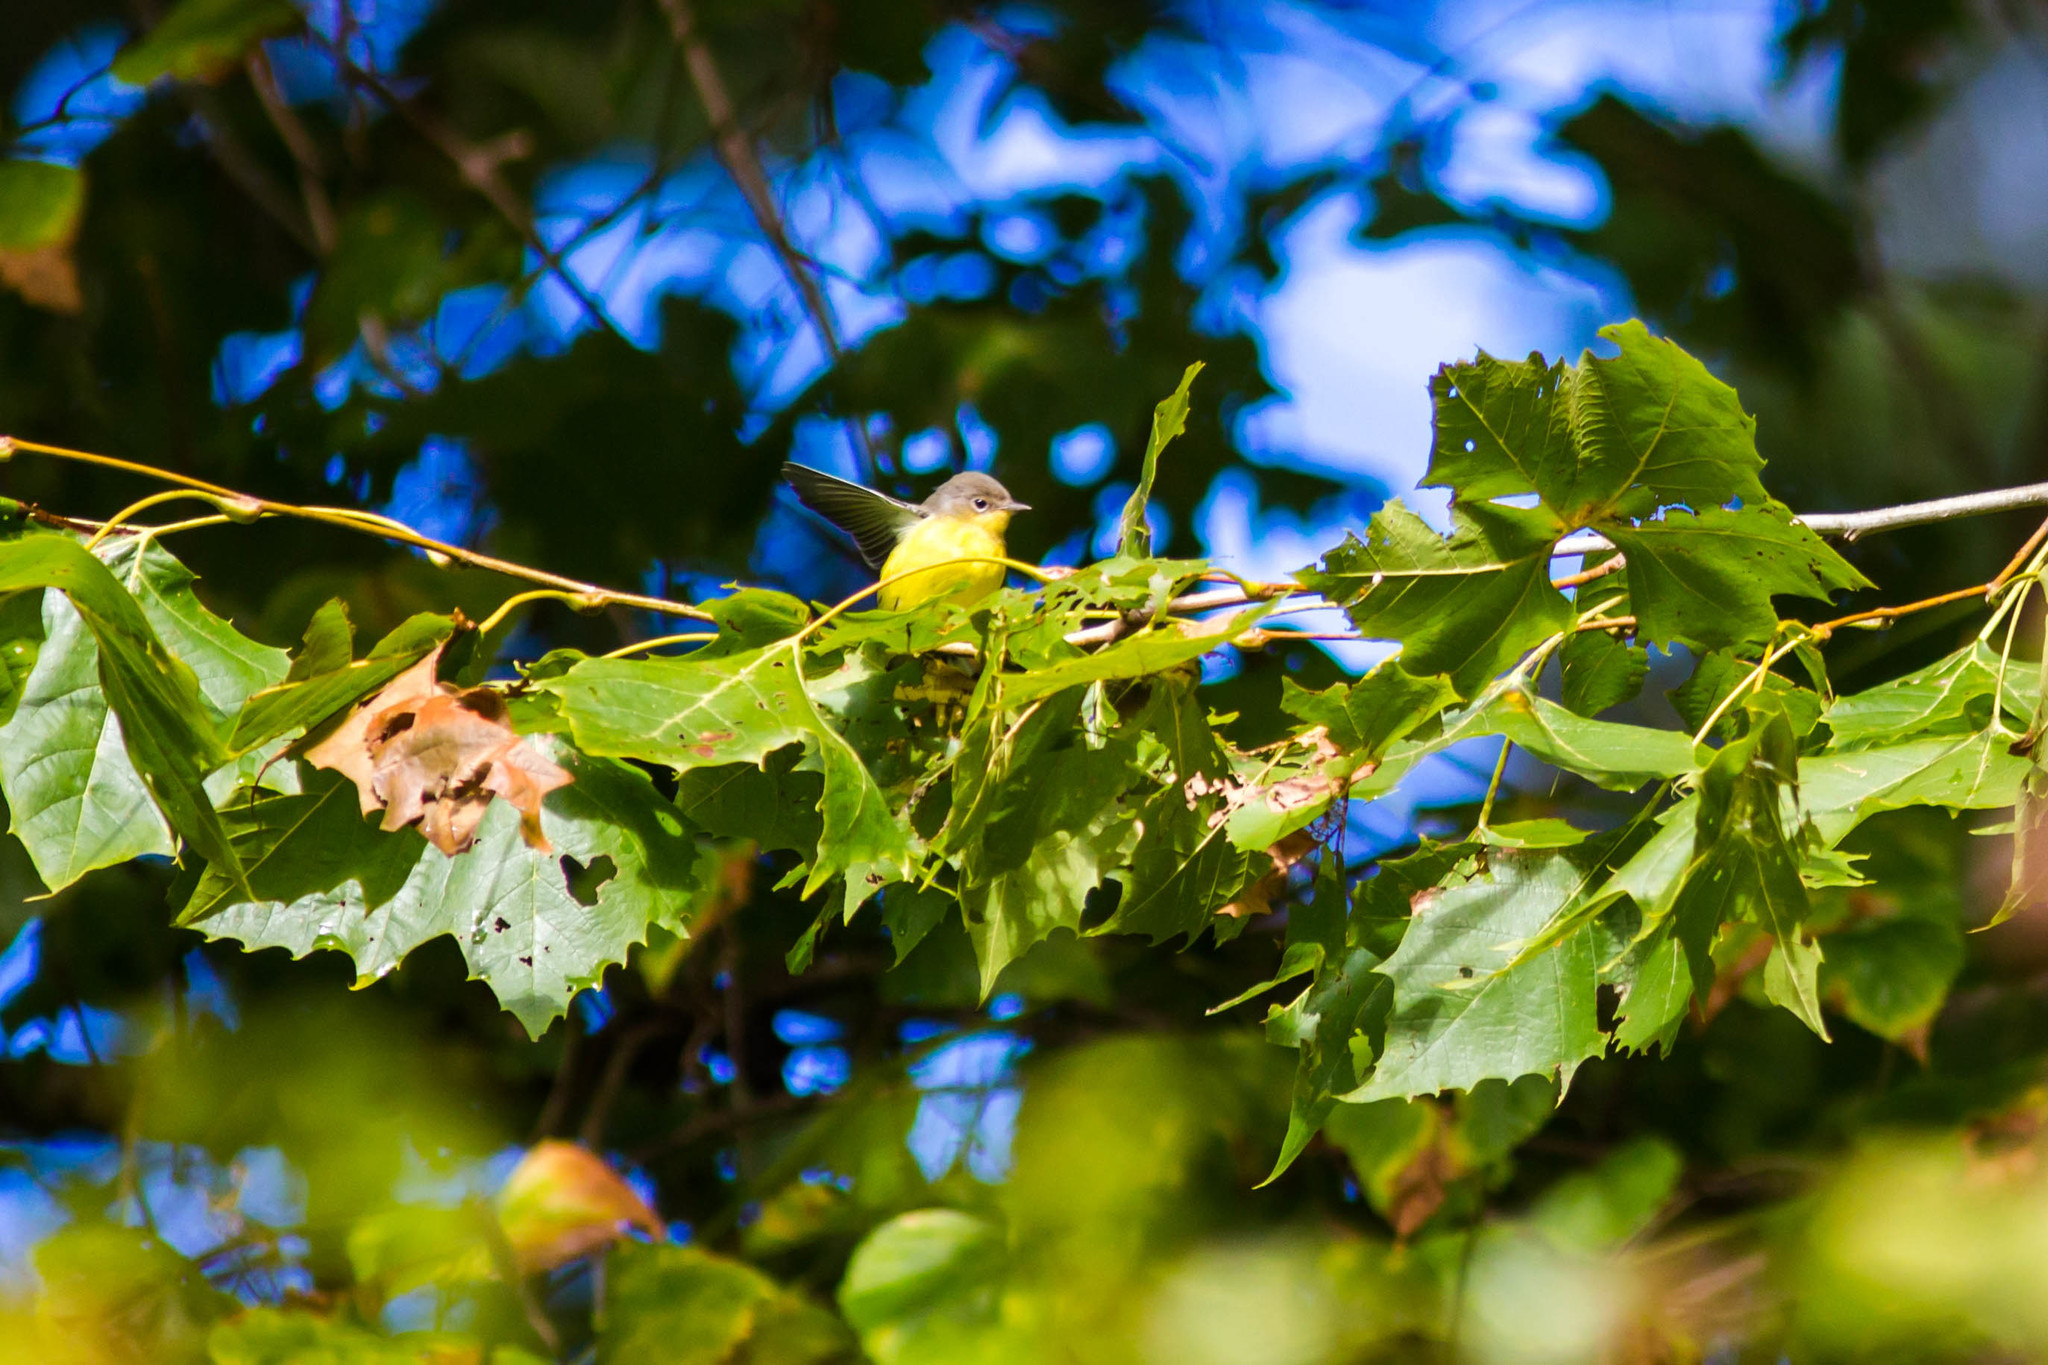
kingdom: Animalia
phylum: Chordata
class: Aves
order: Passeriformes
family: Parulidae
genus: Setophaga
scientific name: Setophaga magnolia
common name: Magnolia warbler
